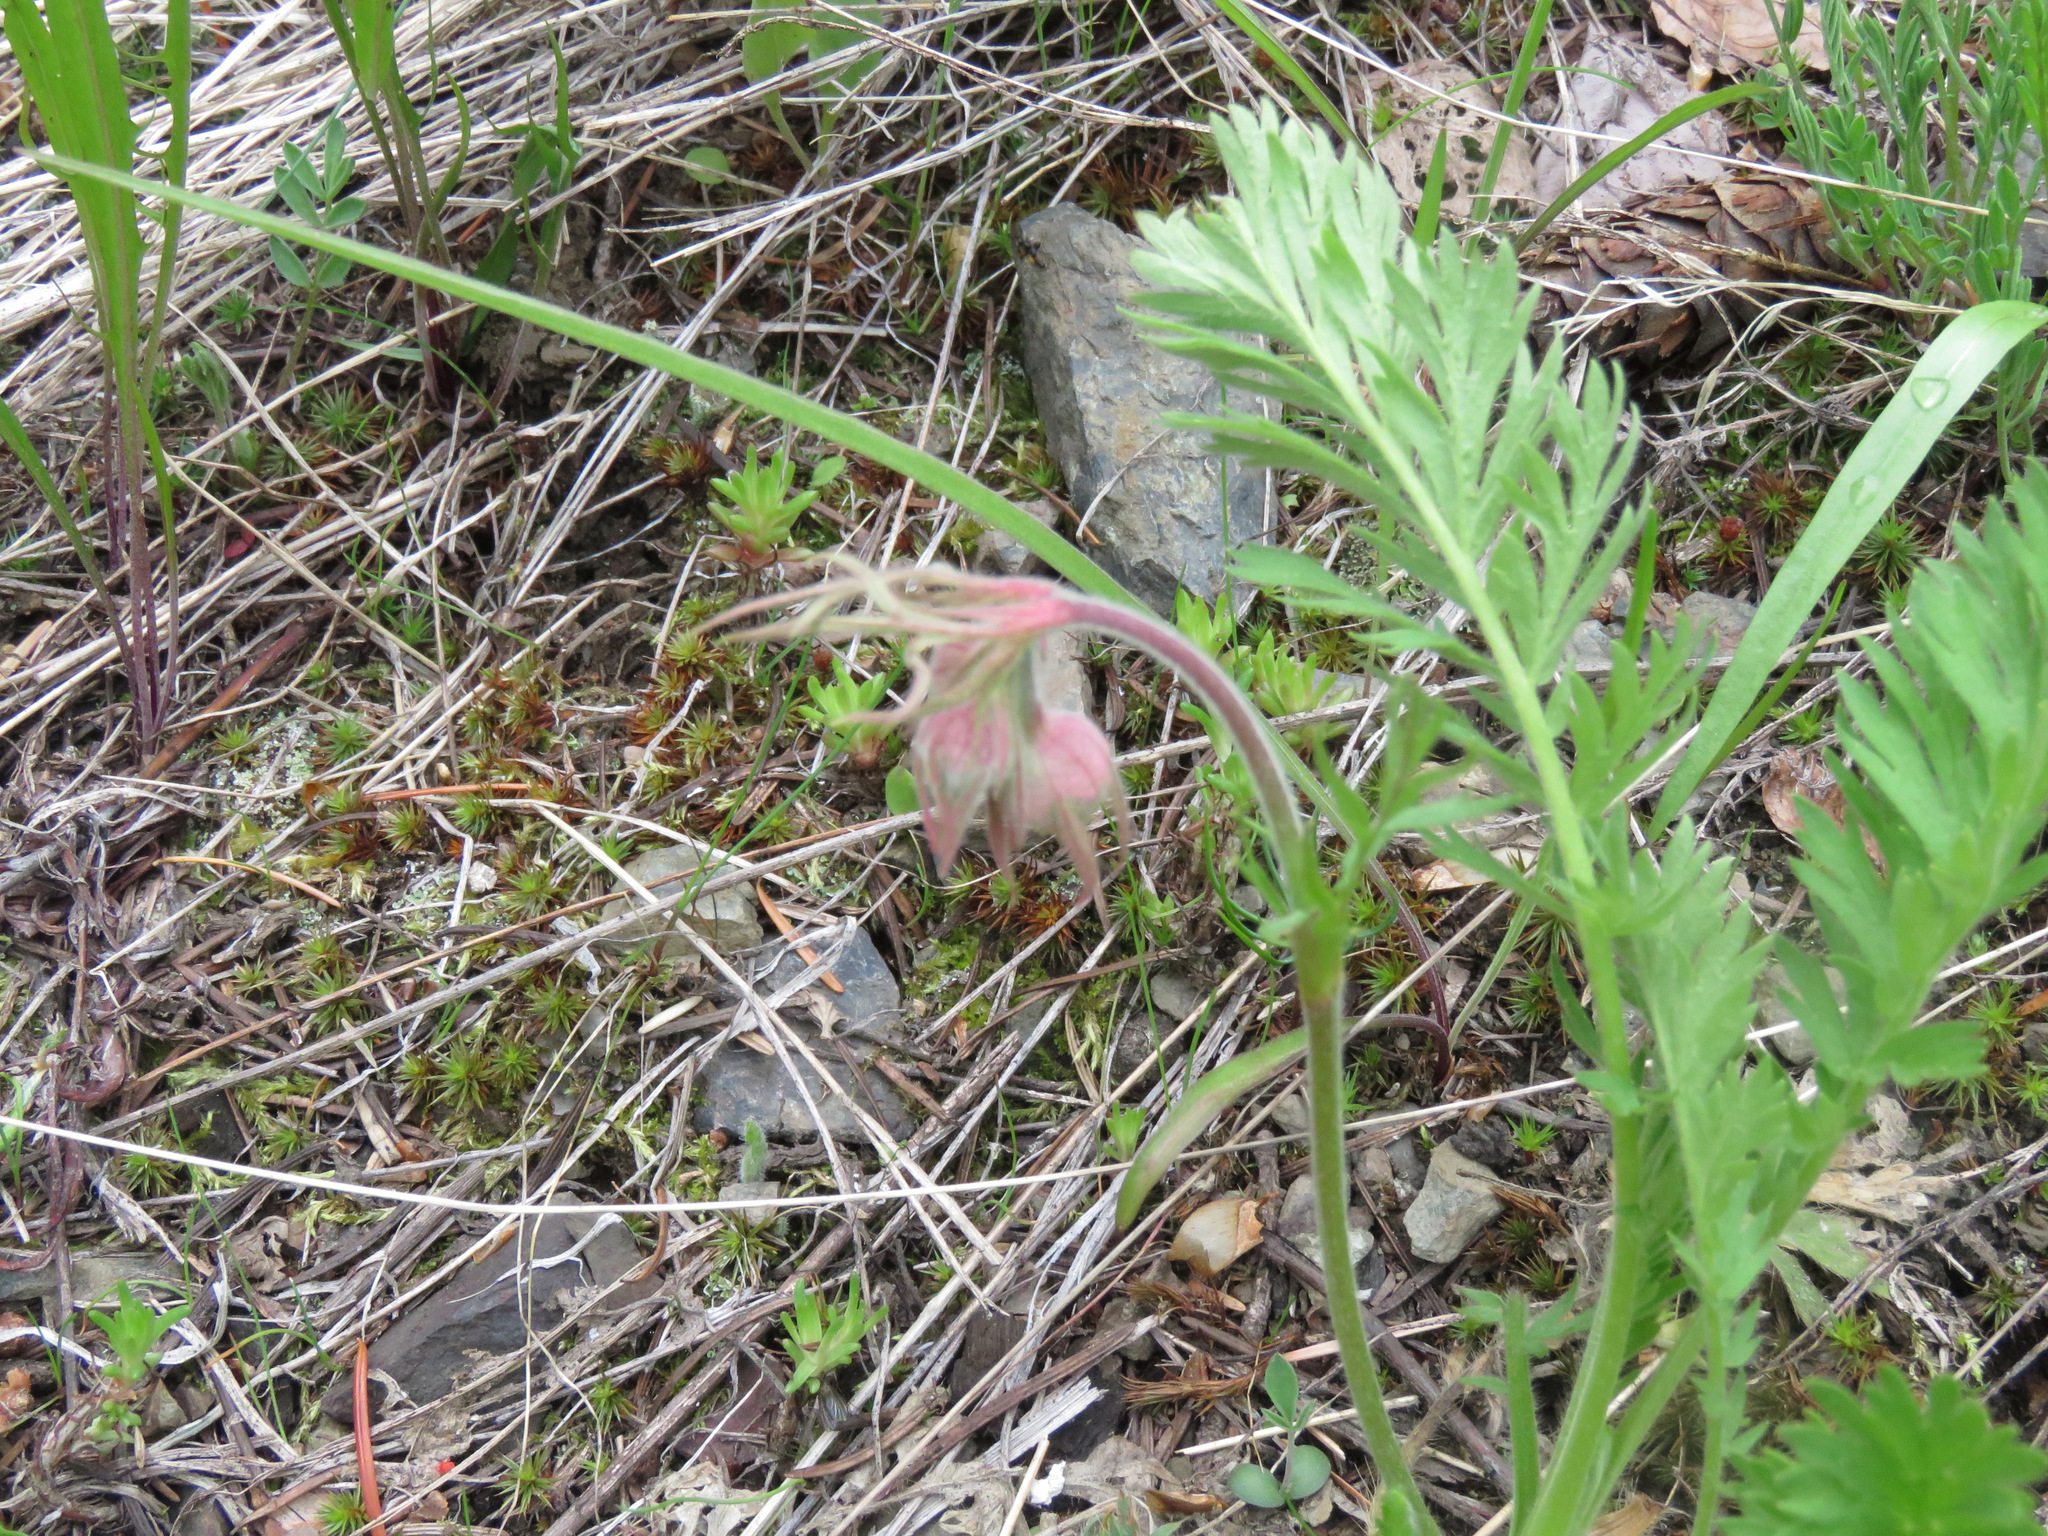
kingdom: Plantae
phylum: Tracheophyta
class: Magnoliopsida
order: Rosales
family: Rosaceae
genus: Geum
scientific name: Geum triflorum
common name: Old man's whiskers
